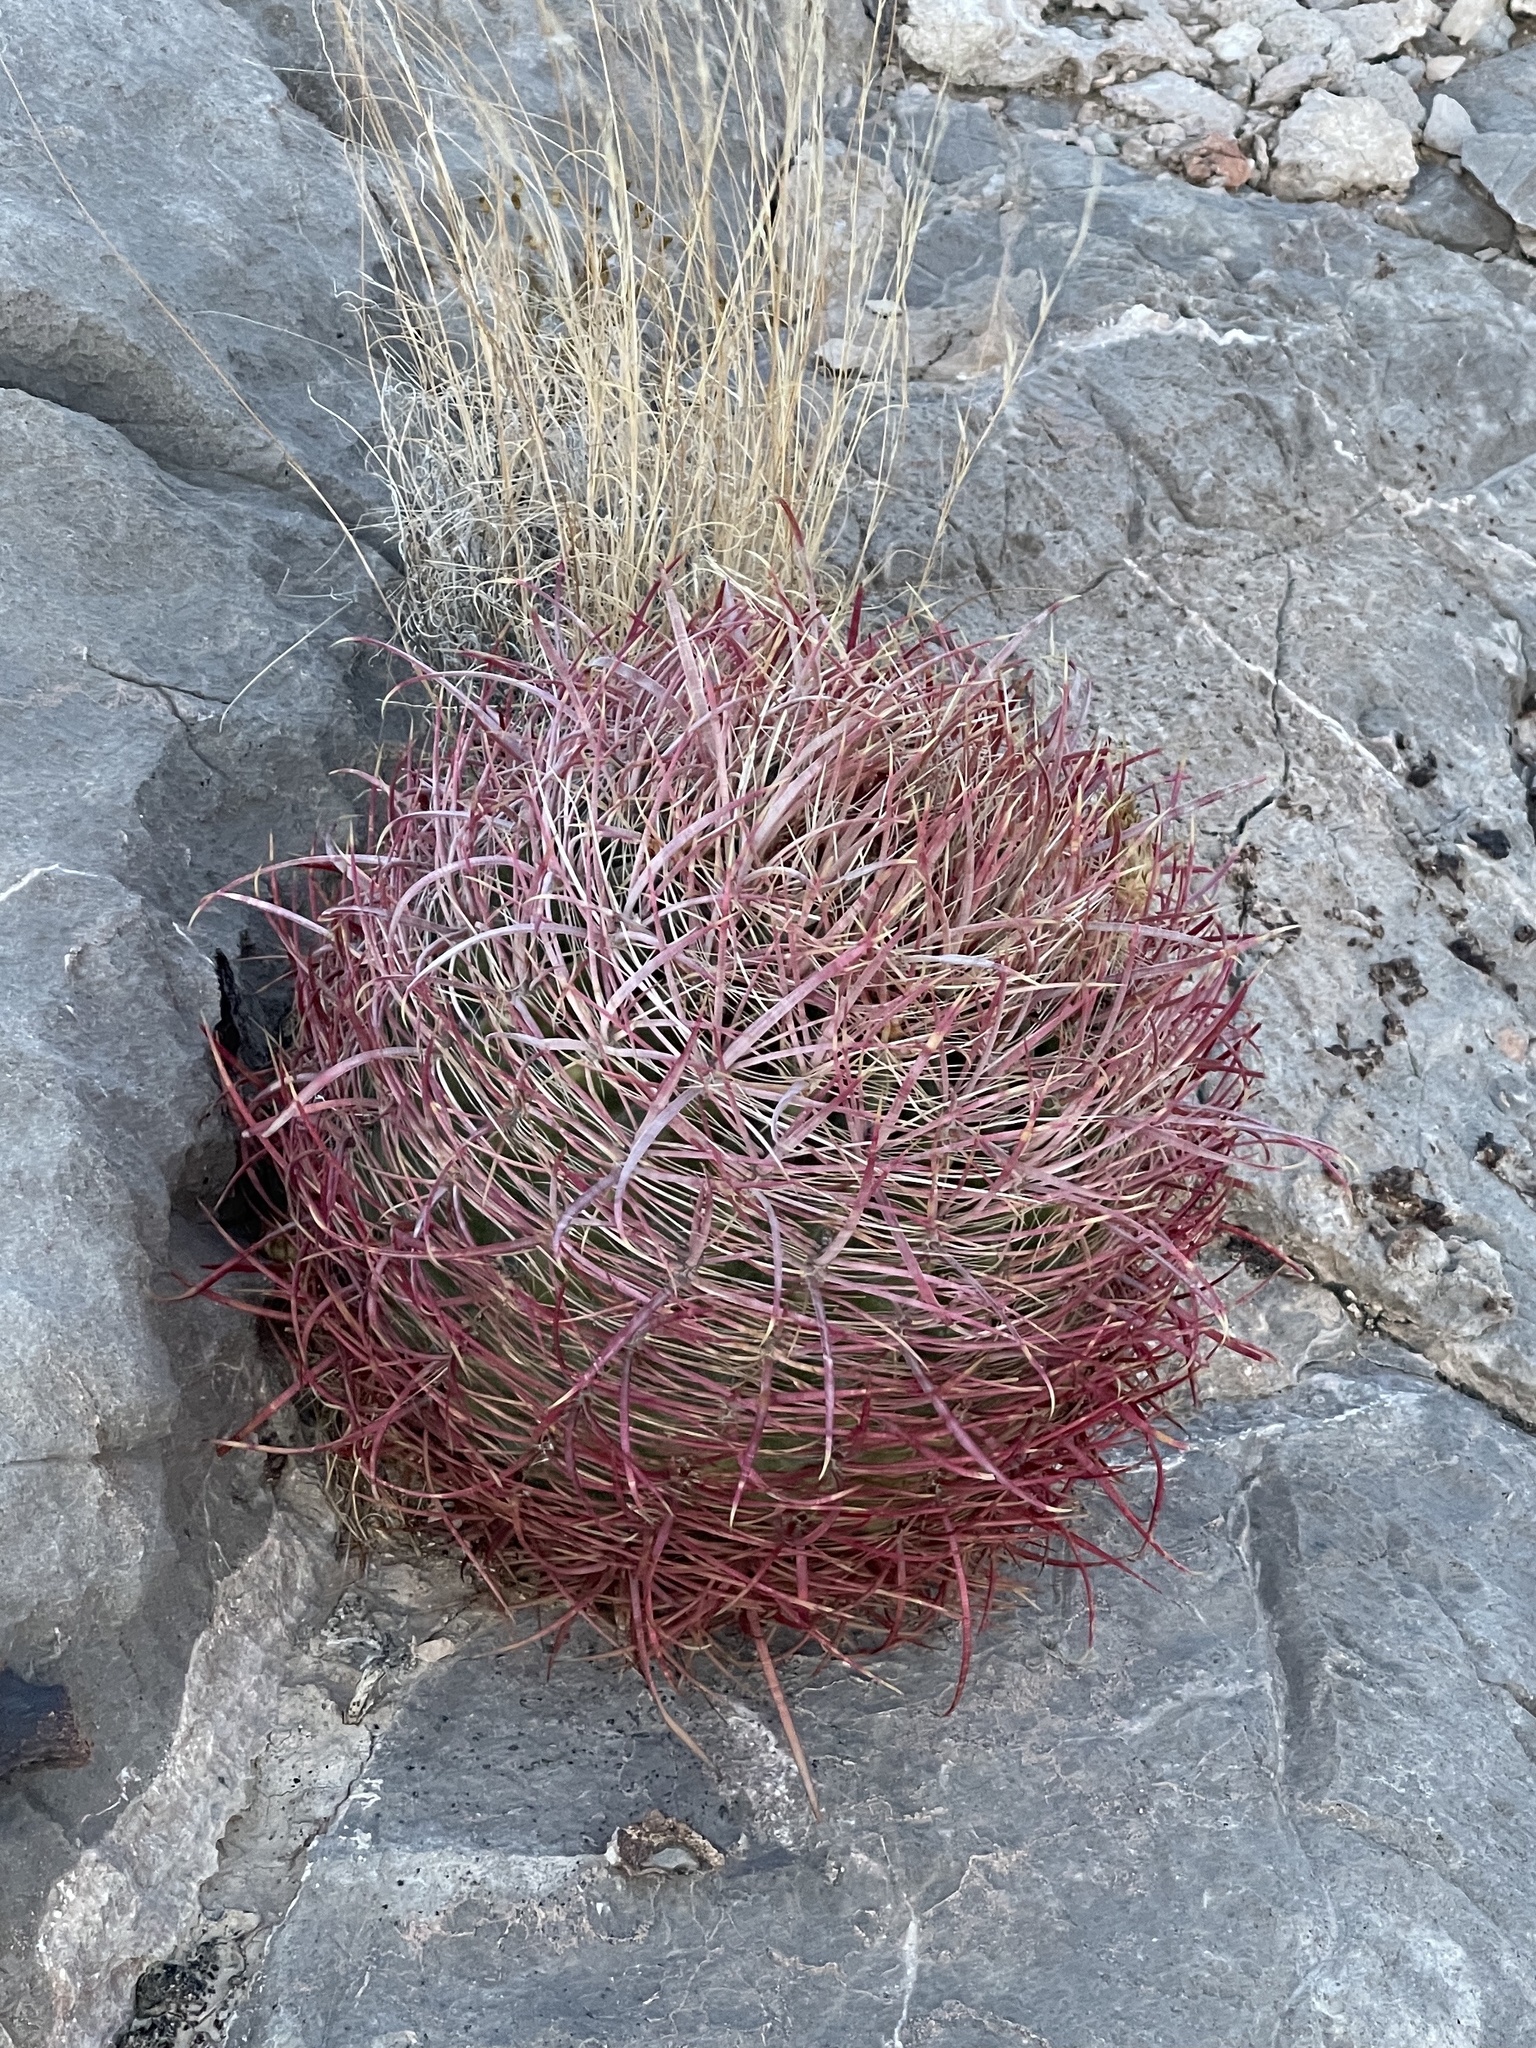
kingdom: Plantae
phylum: Tracheophyta
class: Magnoliopsida
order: Caryophyllales
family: Cactaceae
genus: Ferocactus
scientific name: Ferocactus cylindraceus
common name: California barrel cactus
